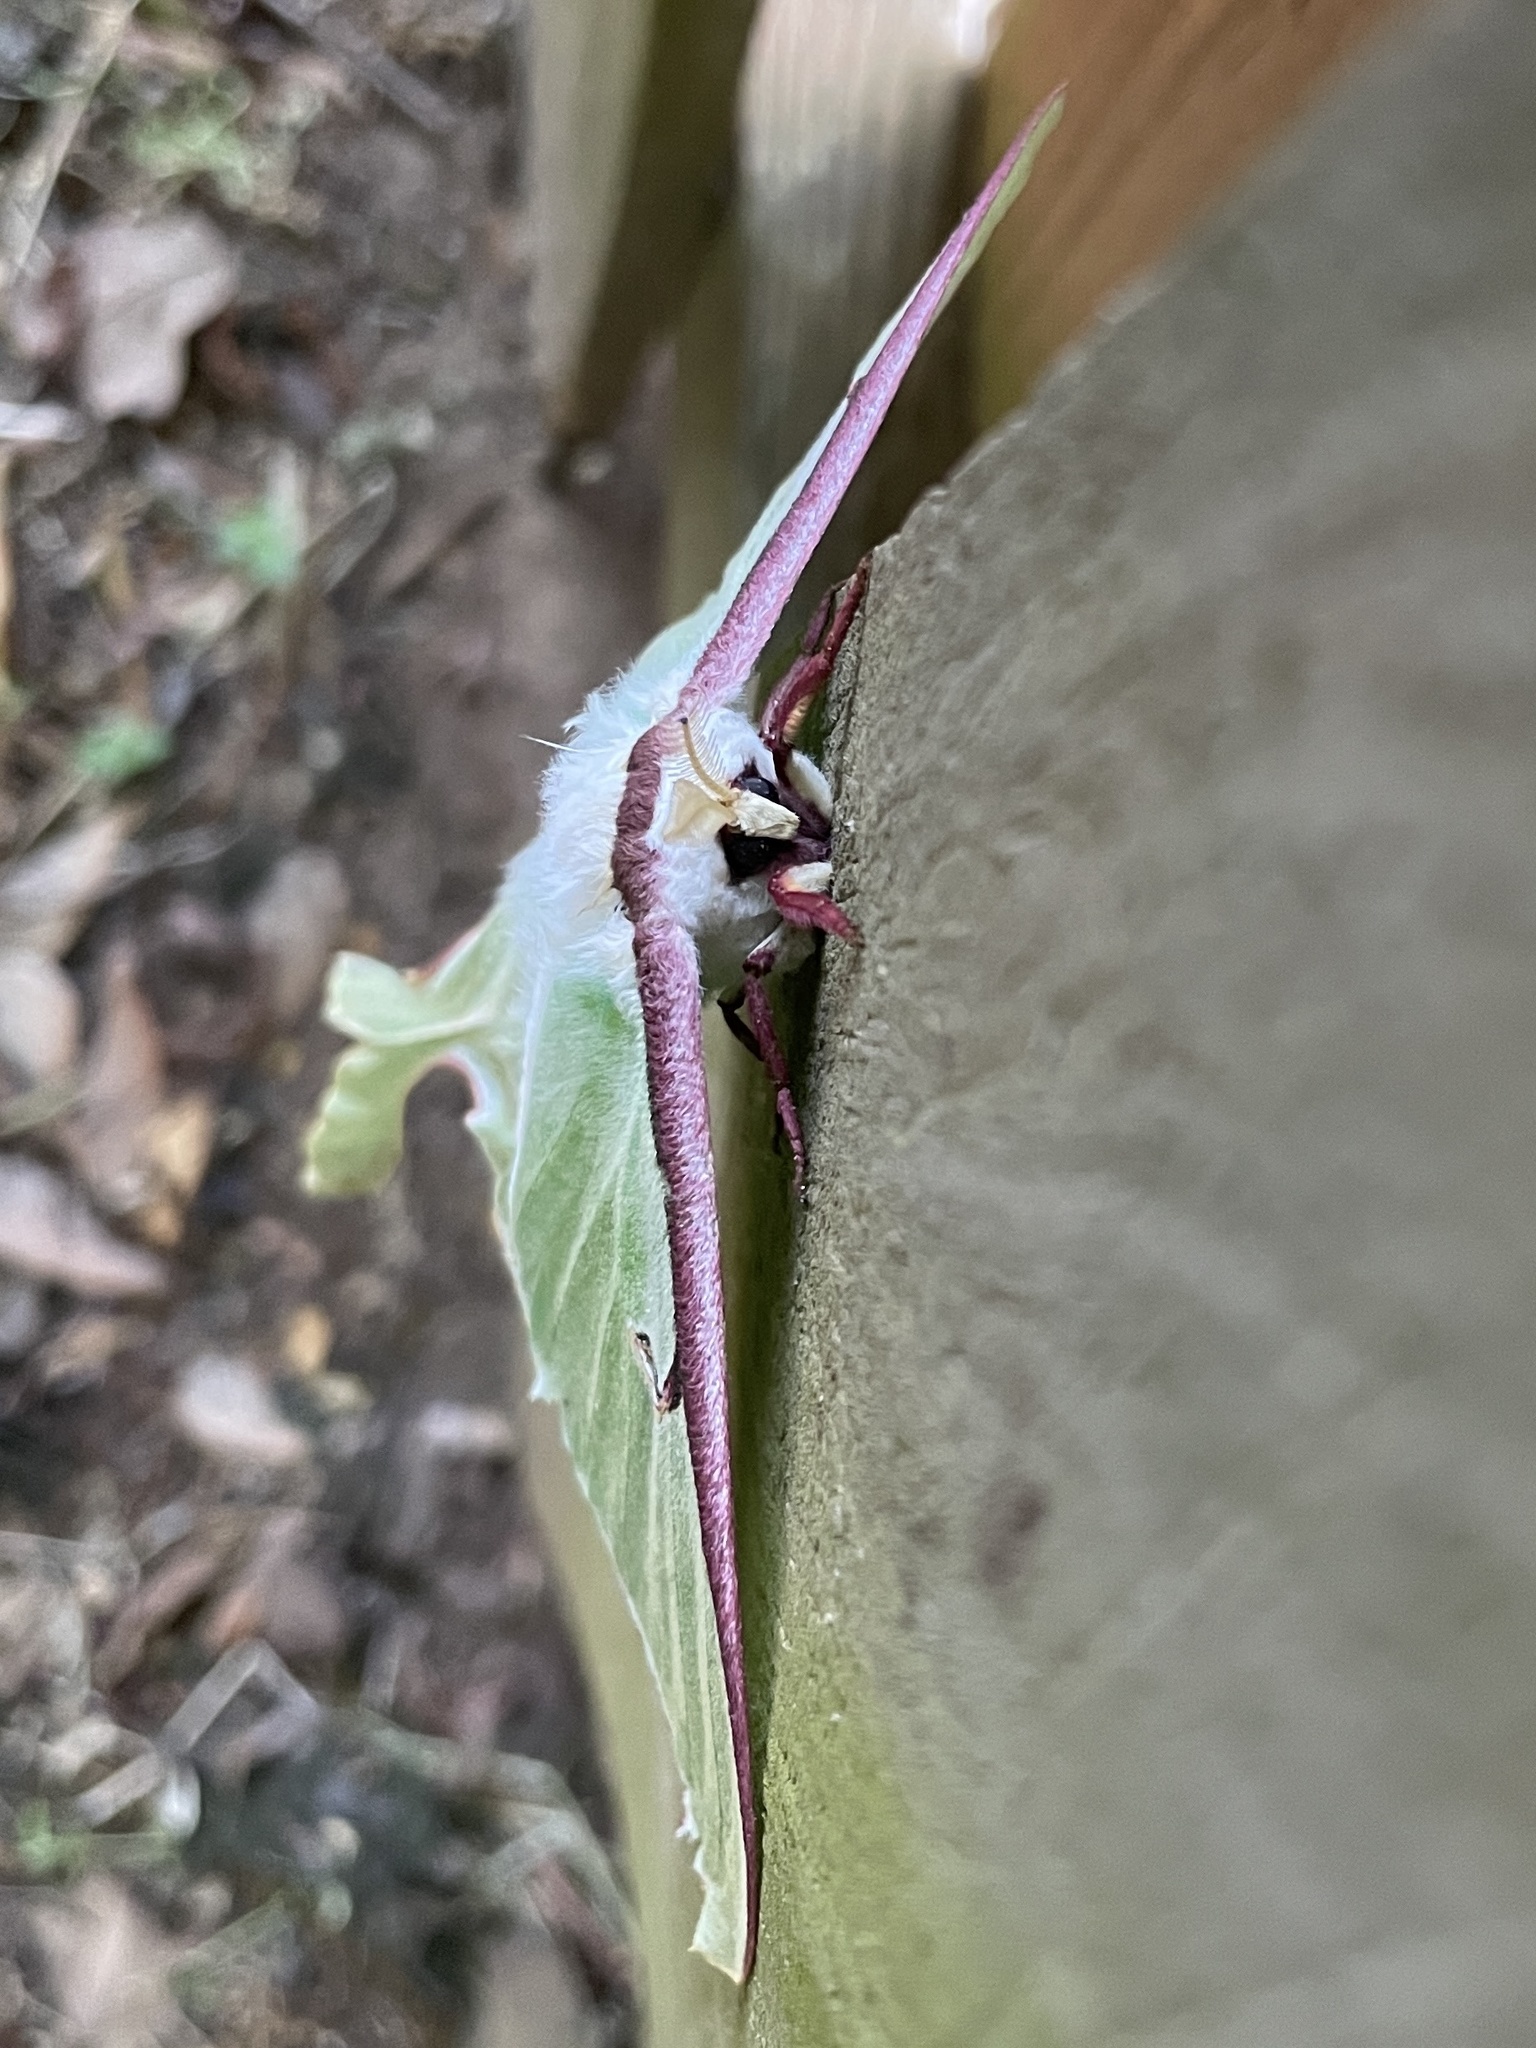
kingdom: Animalia
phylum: Arthropoda
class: Insecta
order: Lepidoptera
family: Saturniidae
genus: Actias
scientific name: Actias luna
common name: Luna moth
